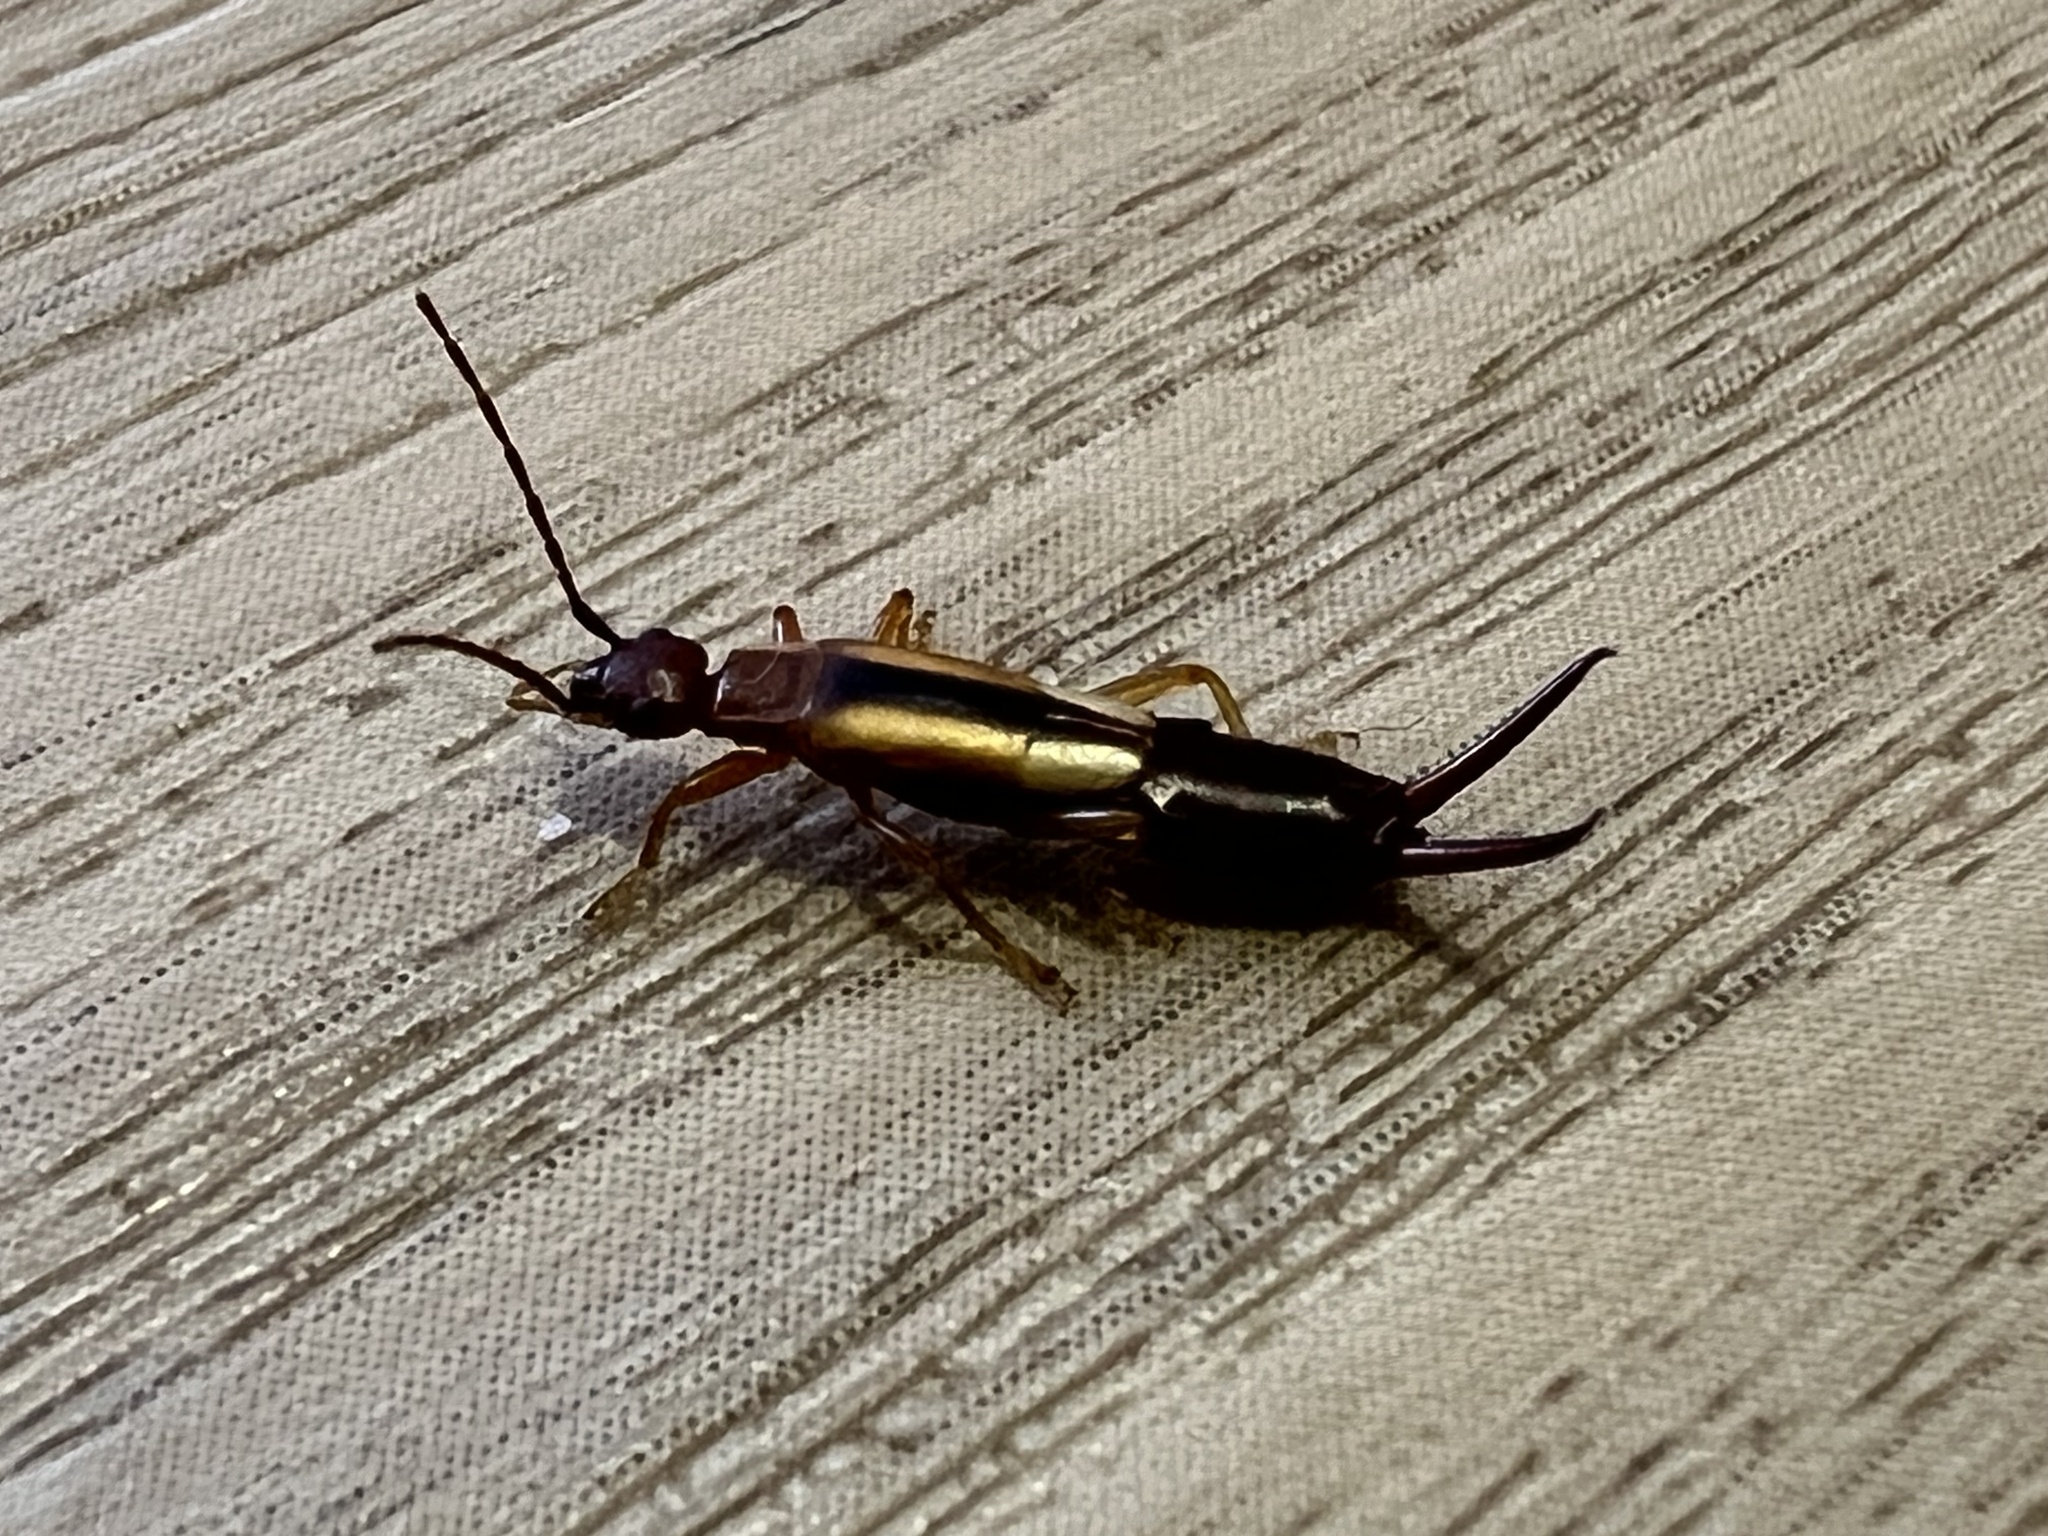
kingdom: Animalia
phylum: Arthropoda
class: Insecta
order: Dermaptera
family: Forficulidae
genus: Doru
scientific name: Doru lineare
